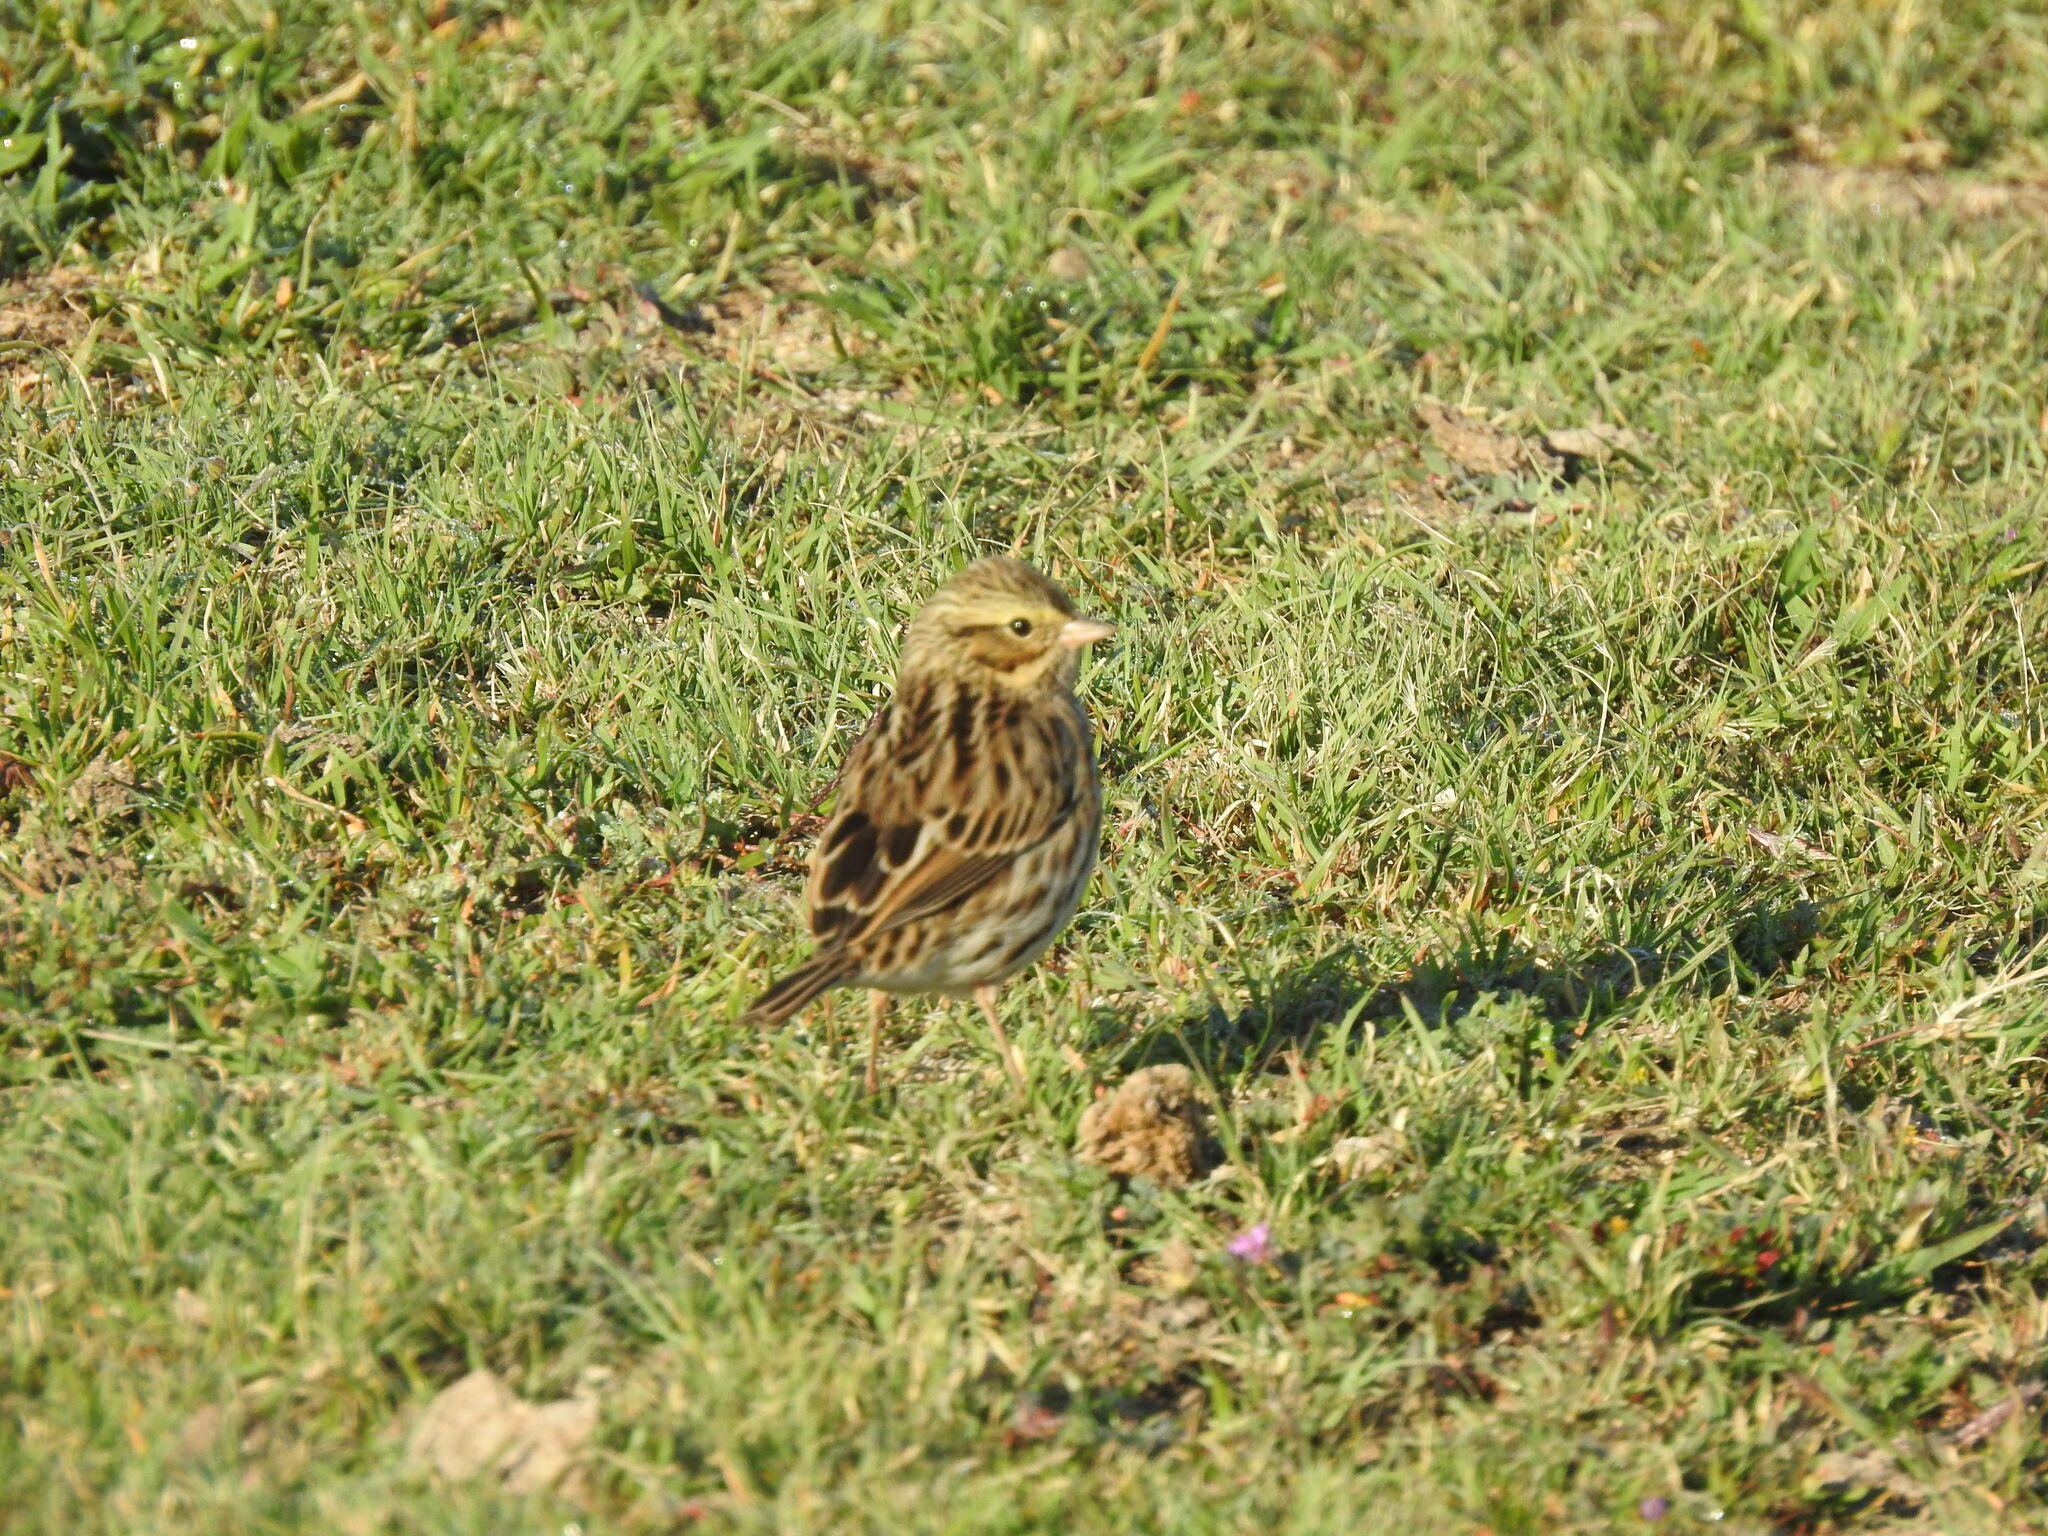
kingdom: Animalia
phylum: Chordata
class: Aves
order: Passeriformes
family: Passerellidae
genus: Passerculus
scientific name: Passerculus sandwichensis
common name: Savannah sparrow
